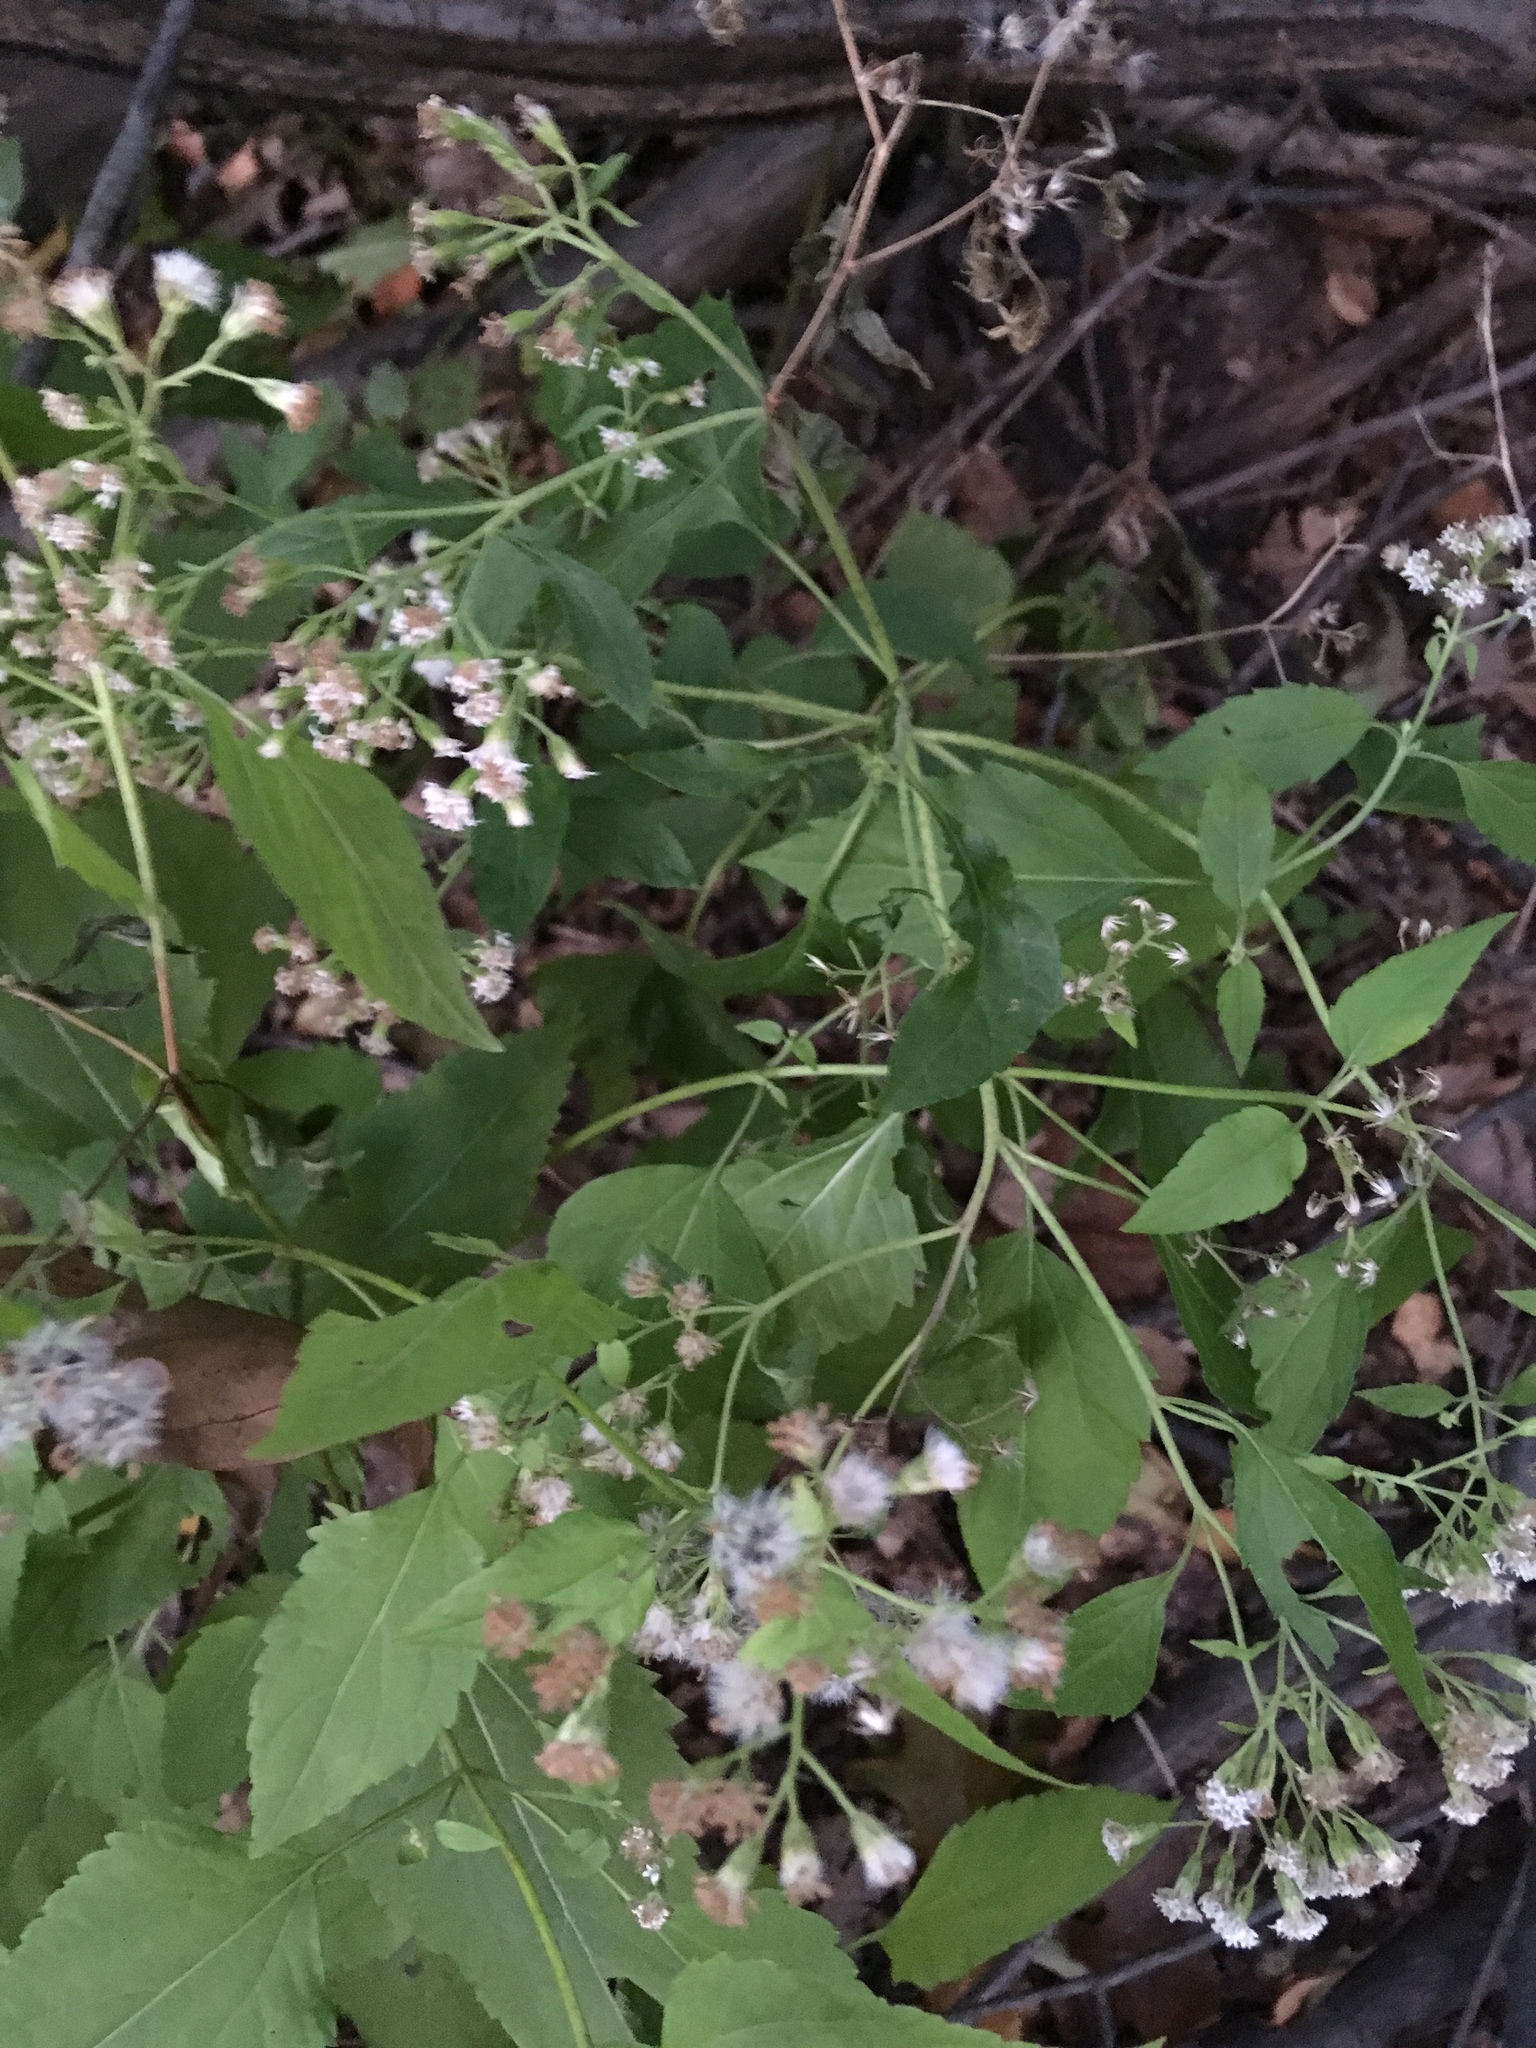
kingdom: Plantae
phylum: Tracheophyta
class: Magnoliopsida
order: Asterales
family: Asteraceae
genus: Ageratina
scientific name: Ageratina altissima
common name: White snakeroot
